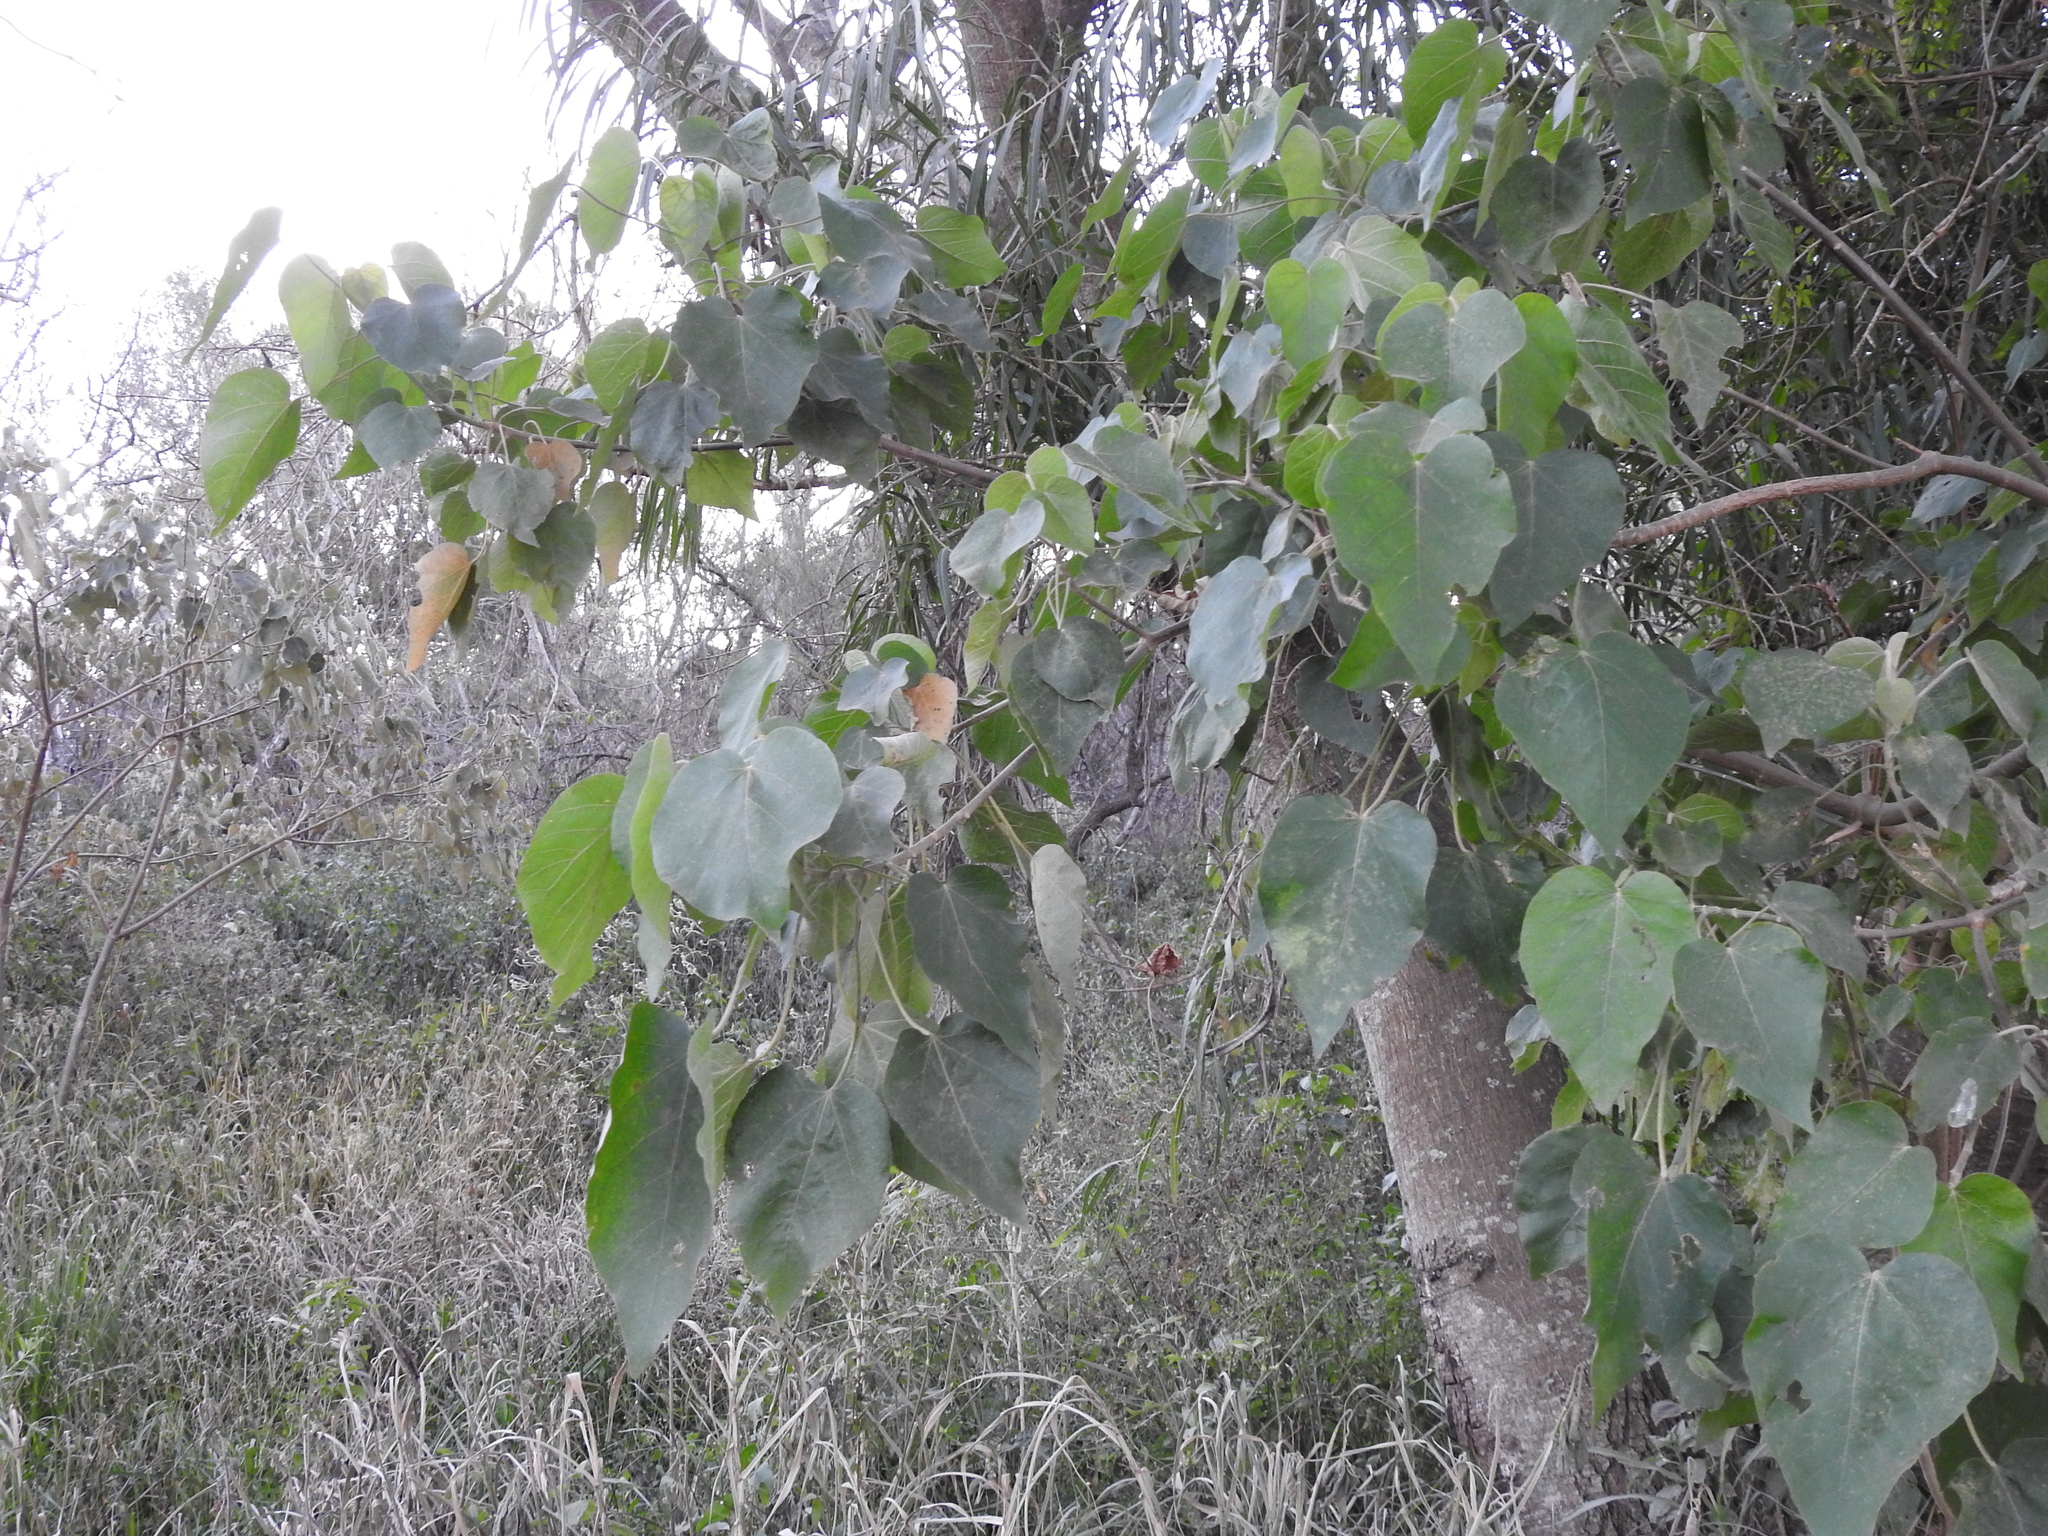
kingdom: Plantae
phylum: Tracheophyta
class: Magnoliopsida
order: Malpighiales
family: Euphorbiaceae
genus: Croton
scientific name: Croton urucurana
